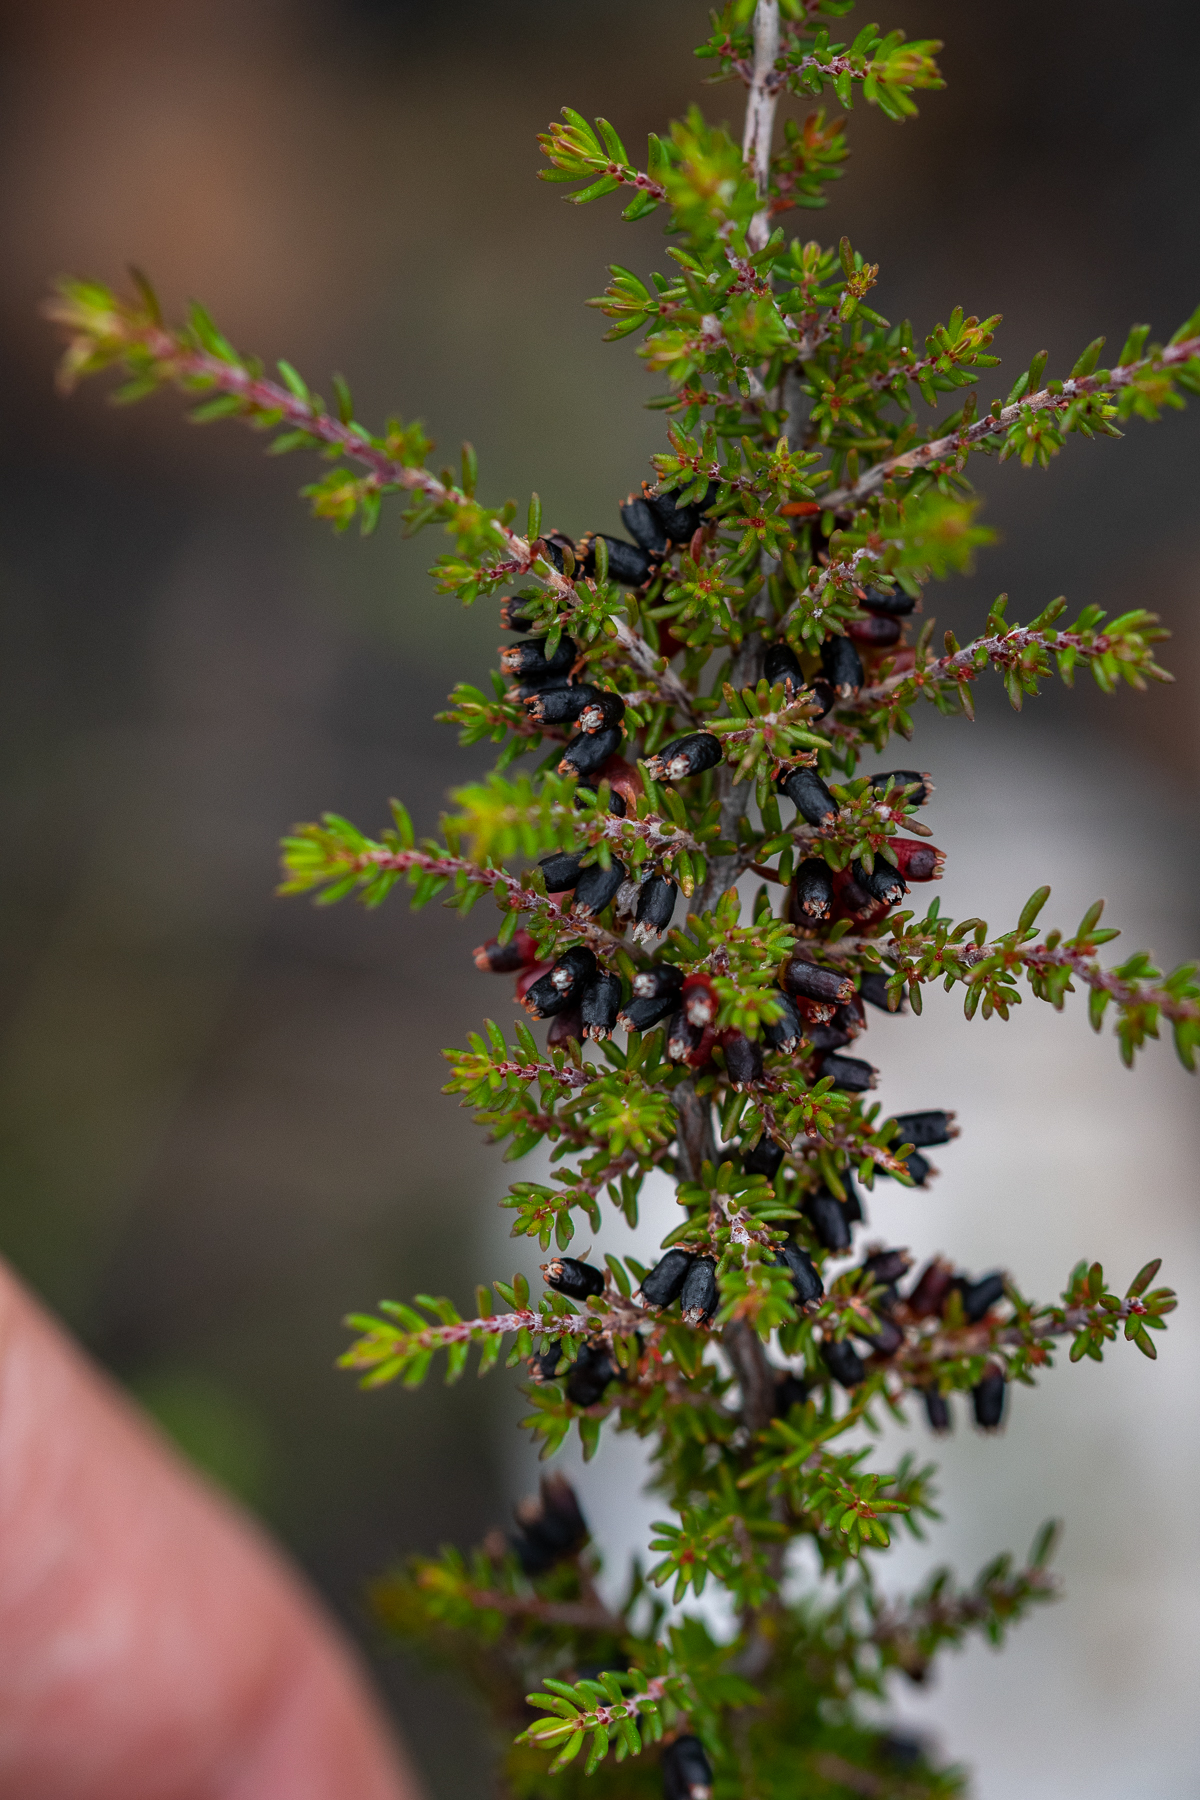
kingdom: Plantae
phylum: Tracheophyta
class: Magnoliopsida
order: Ericales
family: Ericaceae
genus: Erica
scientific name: Erica anguliger
